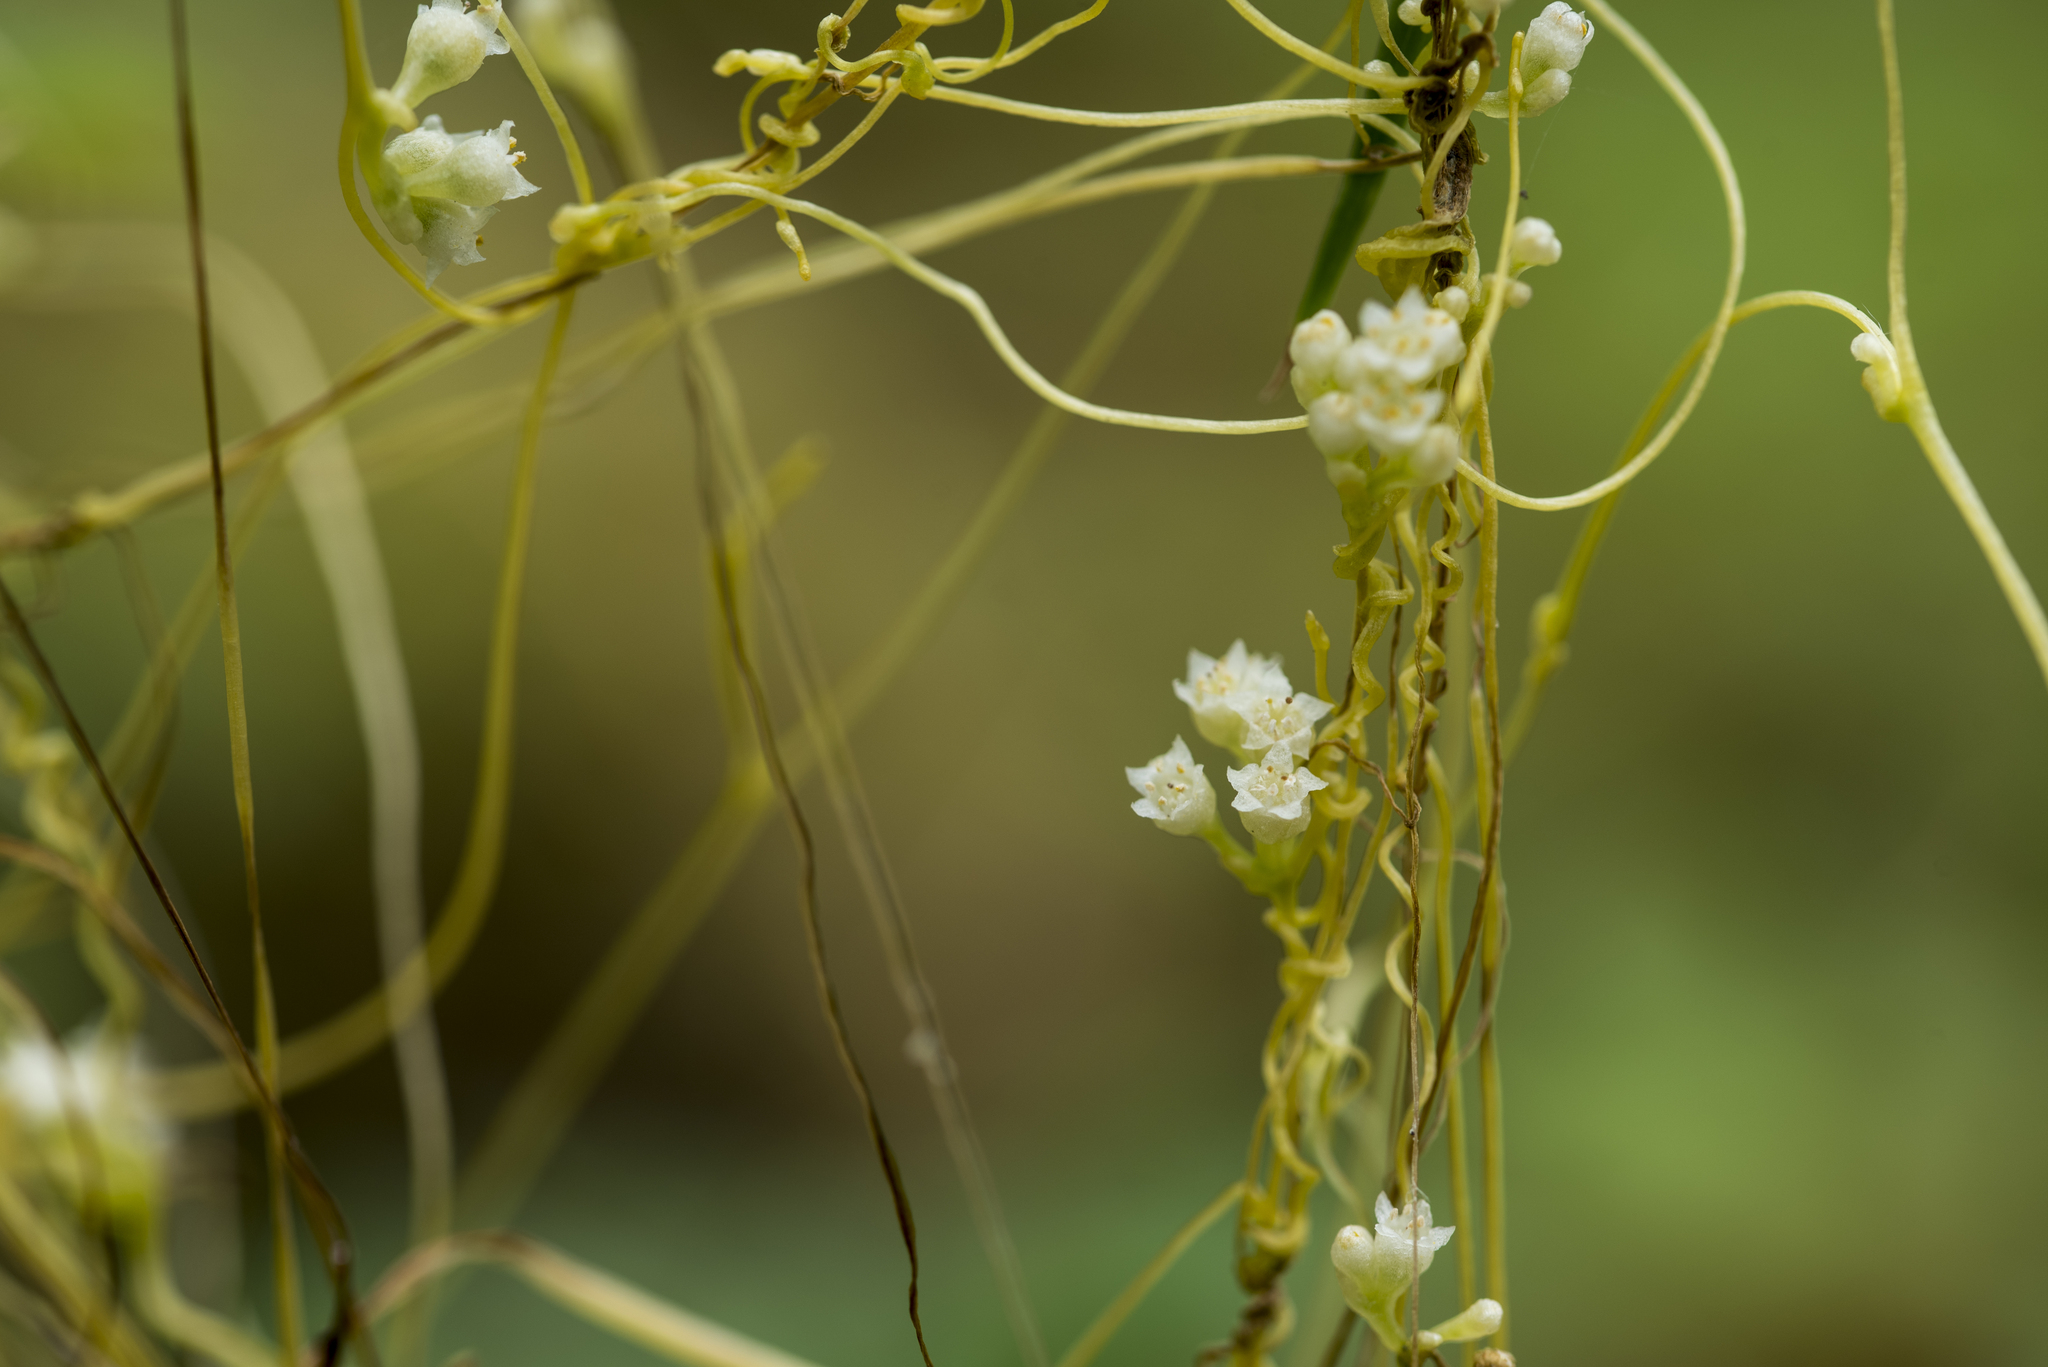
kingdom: Plantae
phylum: Tracheophyta
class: Magnoliopsida
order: Solanales
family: Convolvulaceae
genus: Cuscuta
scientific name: Cuscuta campestris
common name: Yellow dodder
